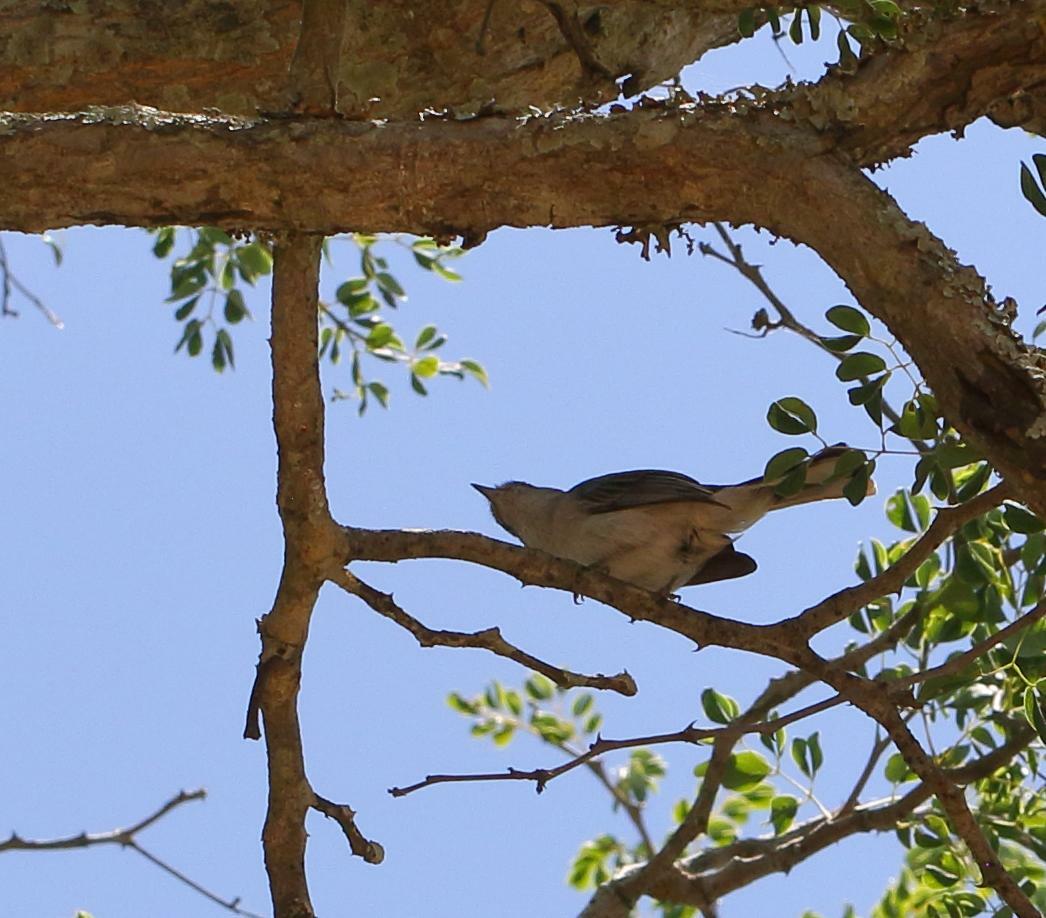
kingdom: Animalia
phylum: Chordata
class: Aves
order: Passeriformes
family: Muscicapidae
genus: Myioparus
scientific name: Myioparus plumbeus
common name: Grey tit-flycatcher
